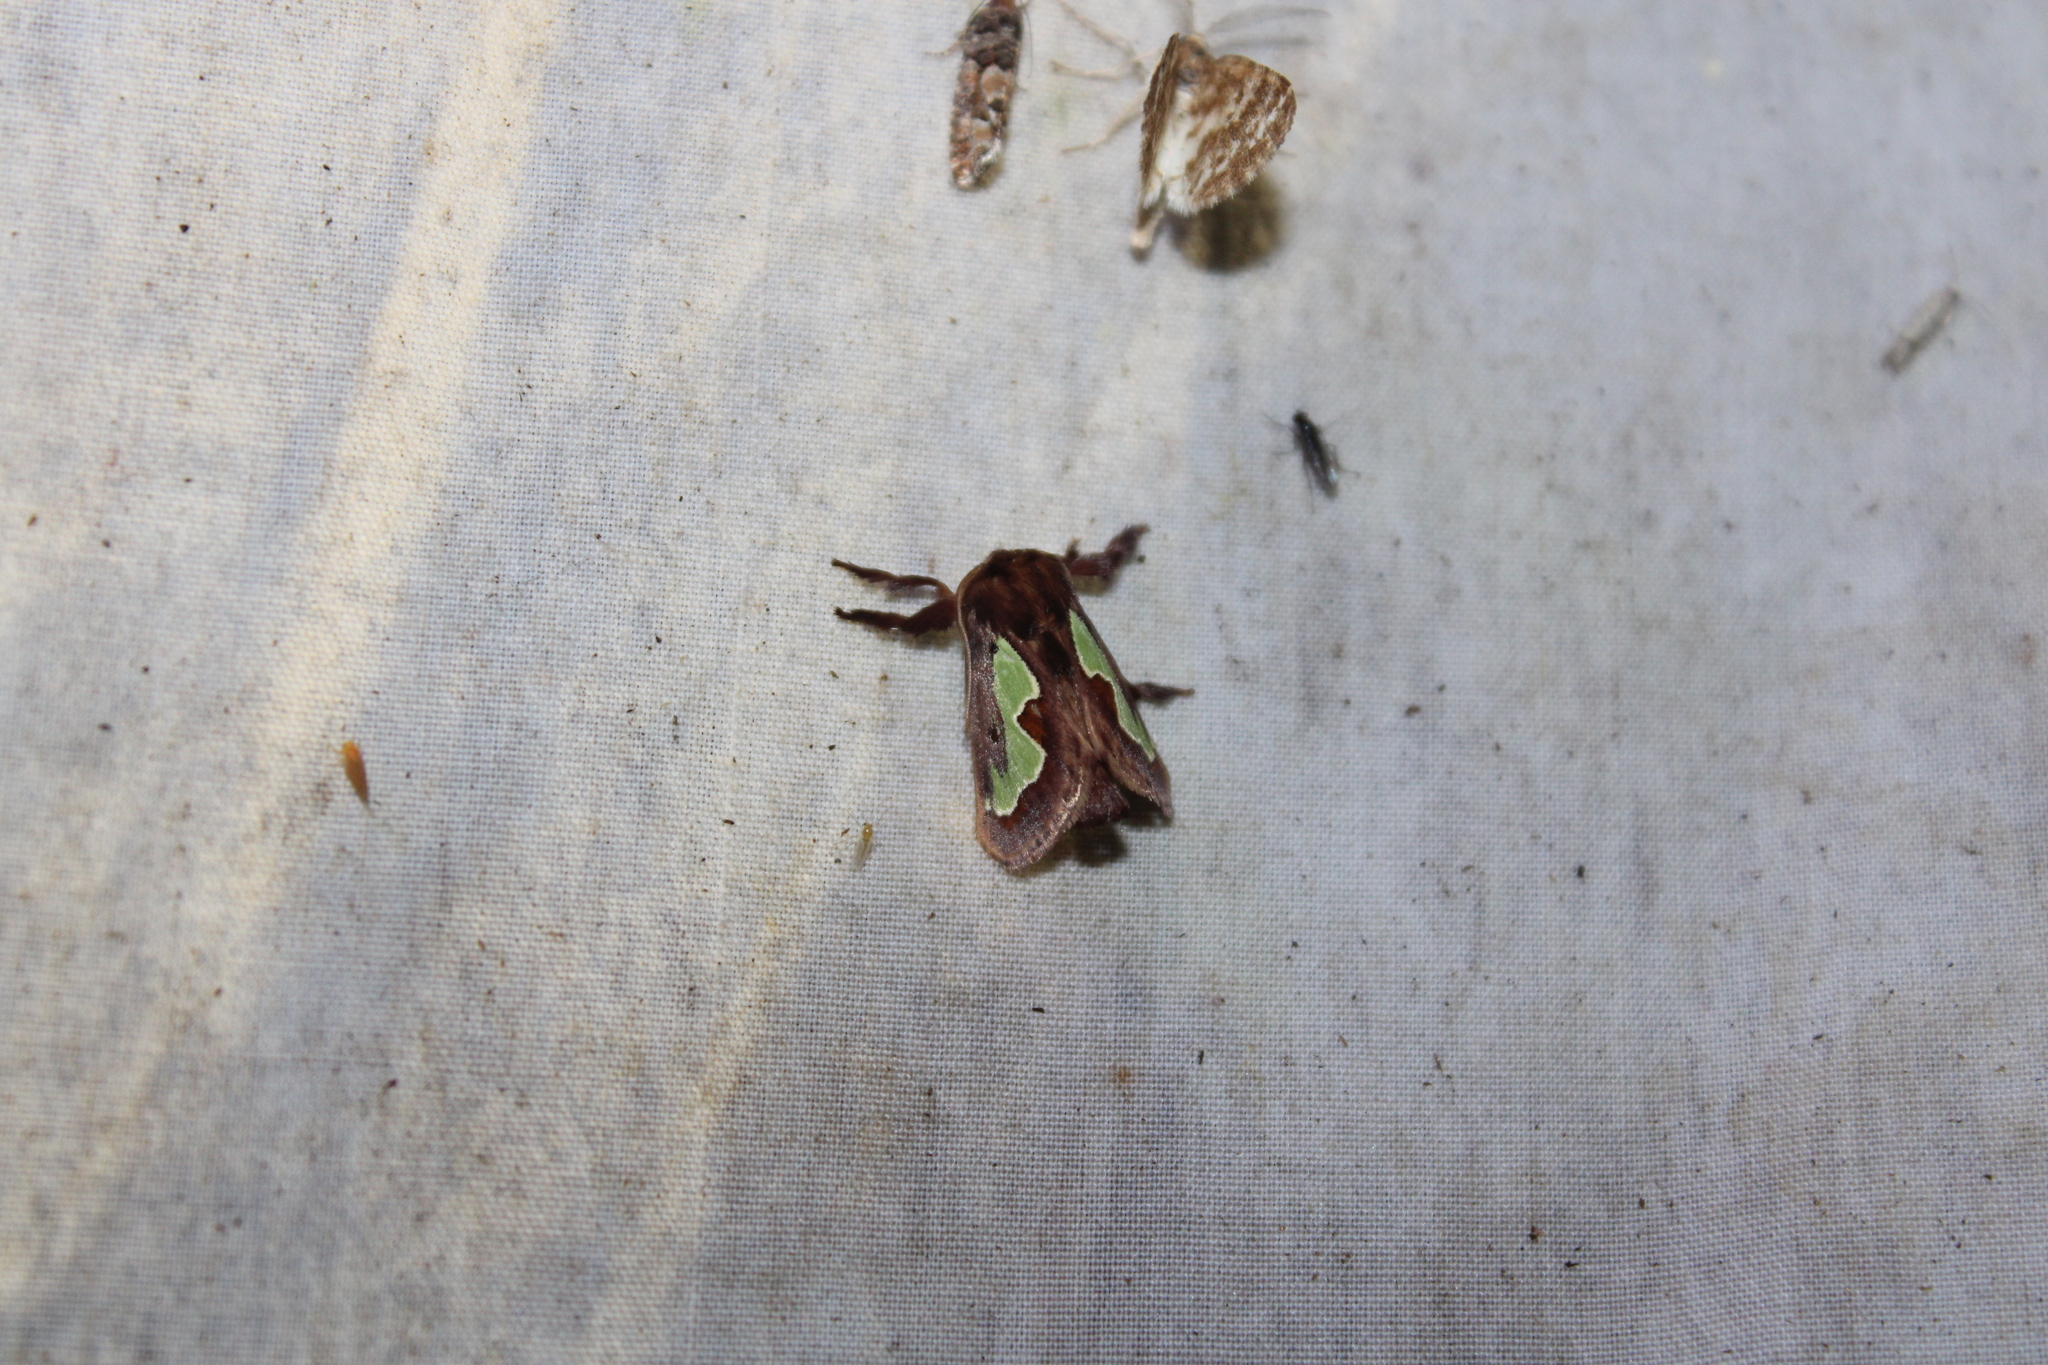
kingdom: Animalia
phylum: Arthropoda
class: Insecta
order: Lepidoptera
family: Limacodidae
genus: Euclea
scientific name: Euclea delphinii
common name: Spiny oak-slug moth
